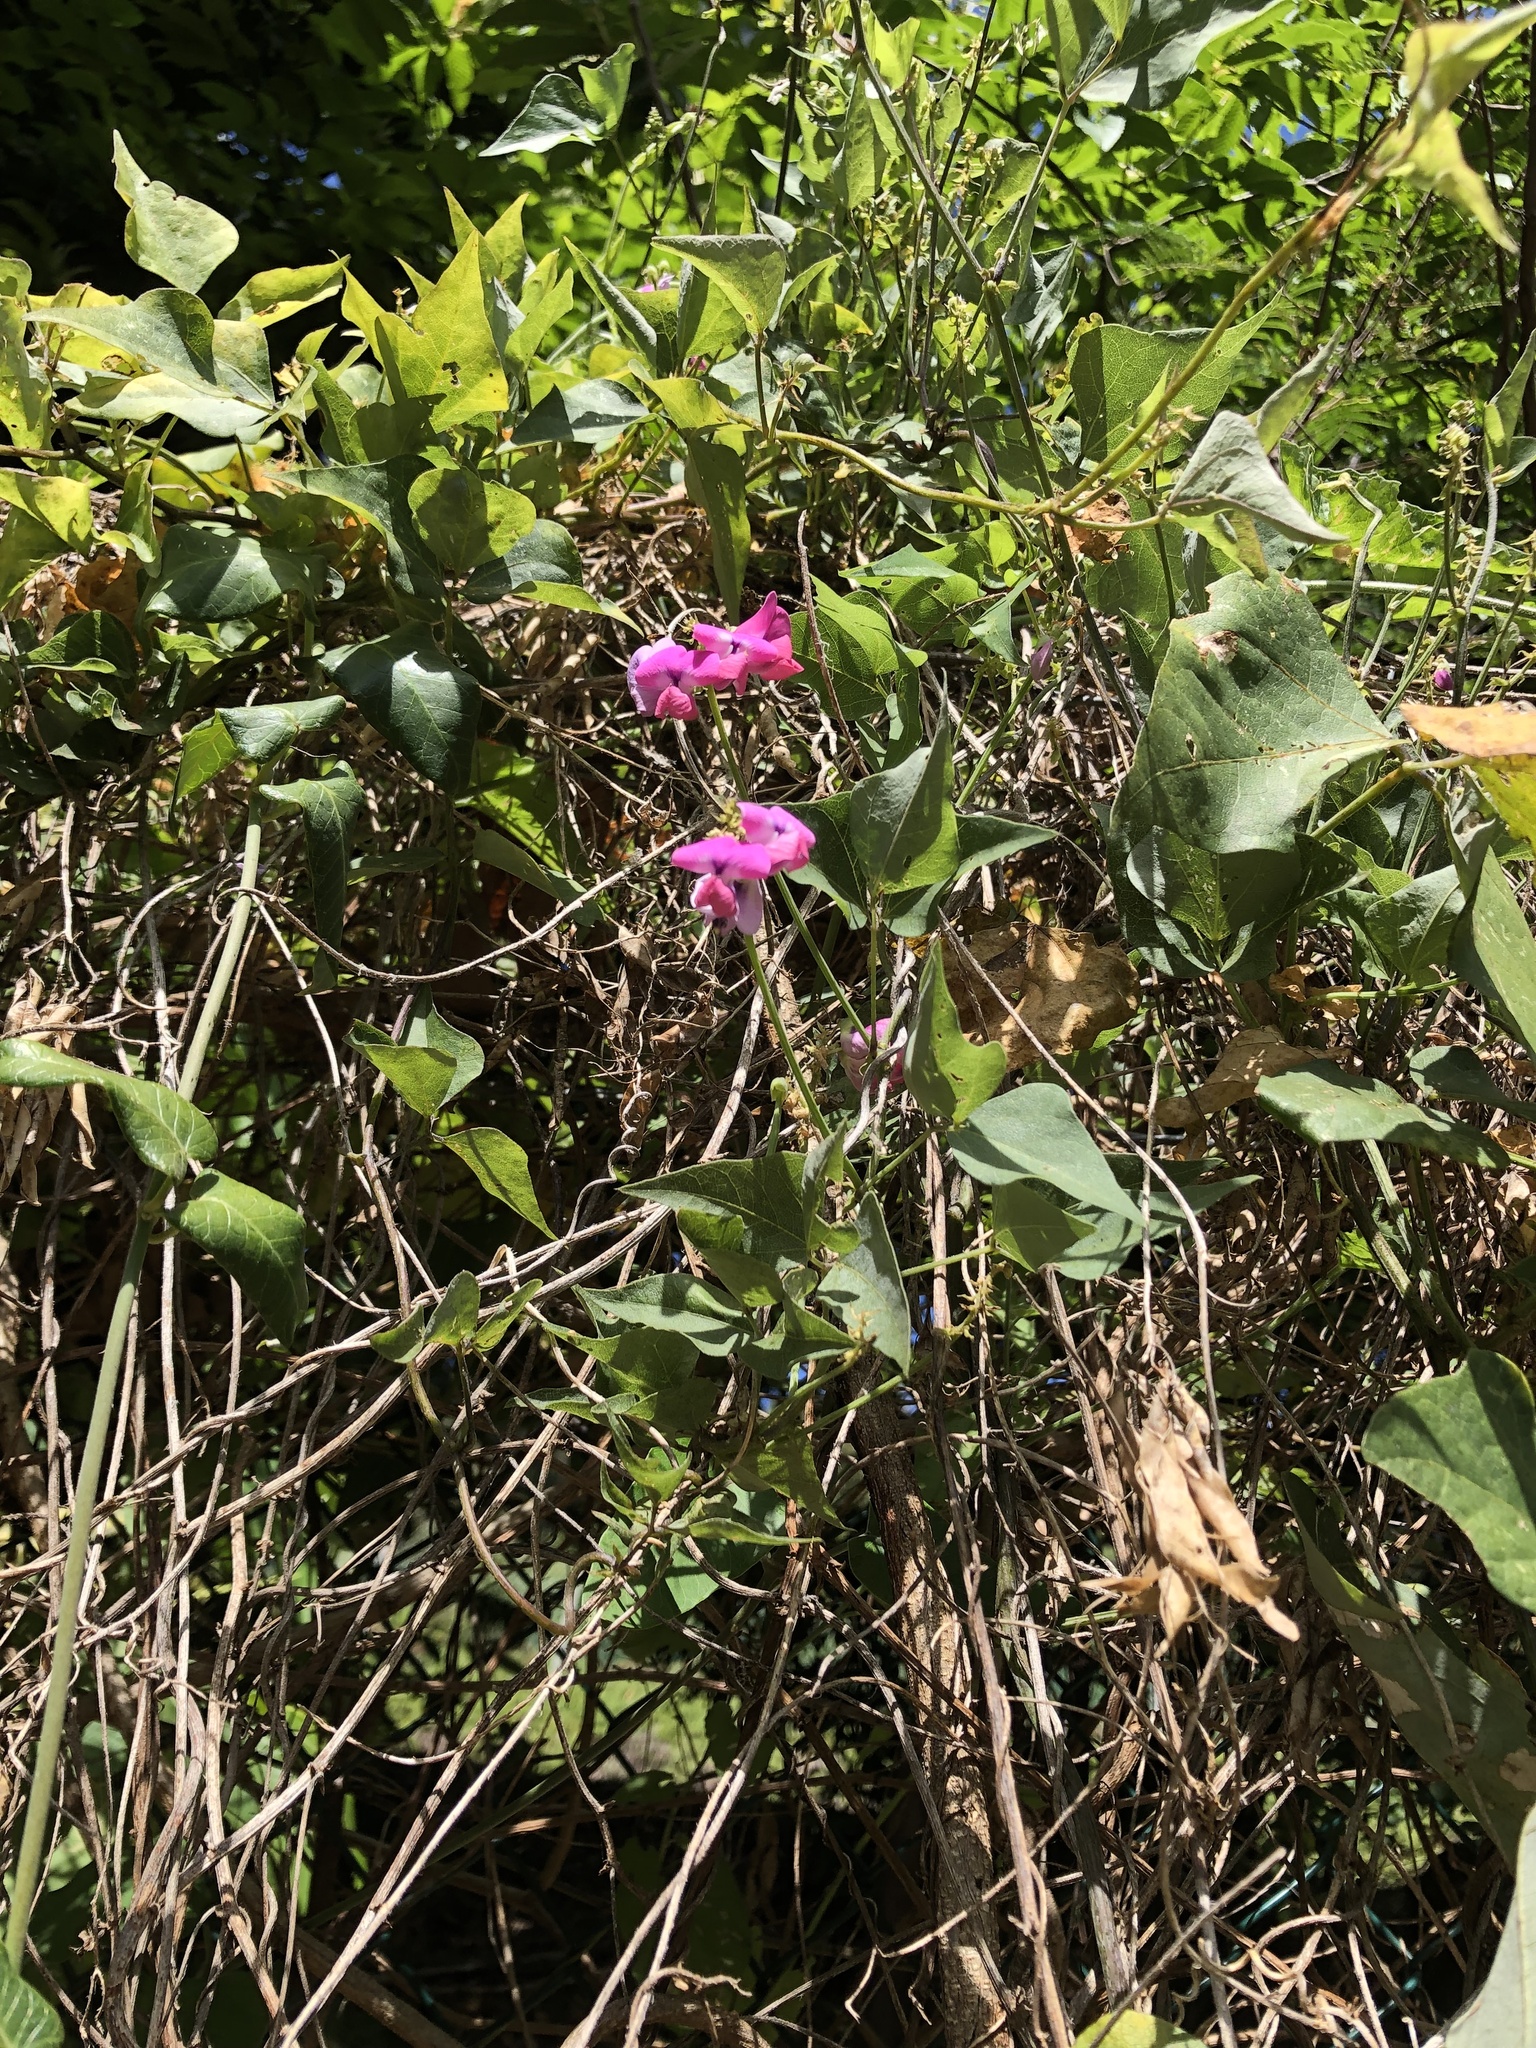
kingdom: Plantae
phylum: Tracheophyta
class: Magnoliopsida
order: Fabales
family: Fabaceae
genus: Dipogon
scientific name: Dipogon lignosus
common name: Okie bean
